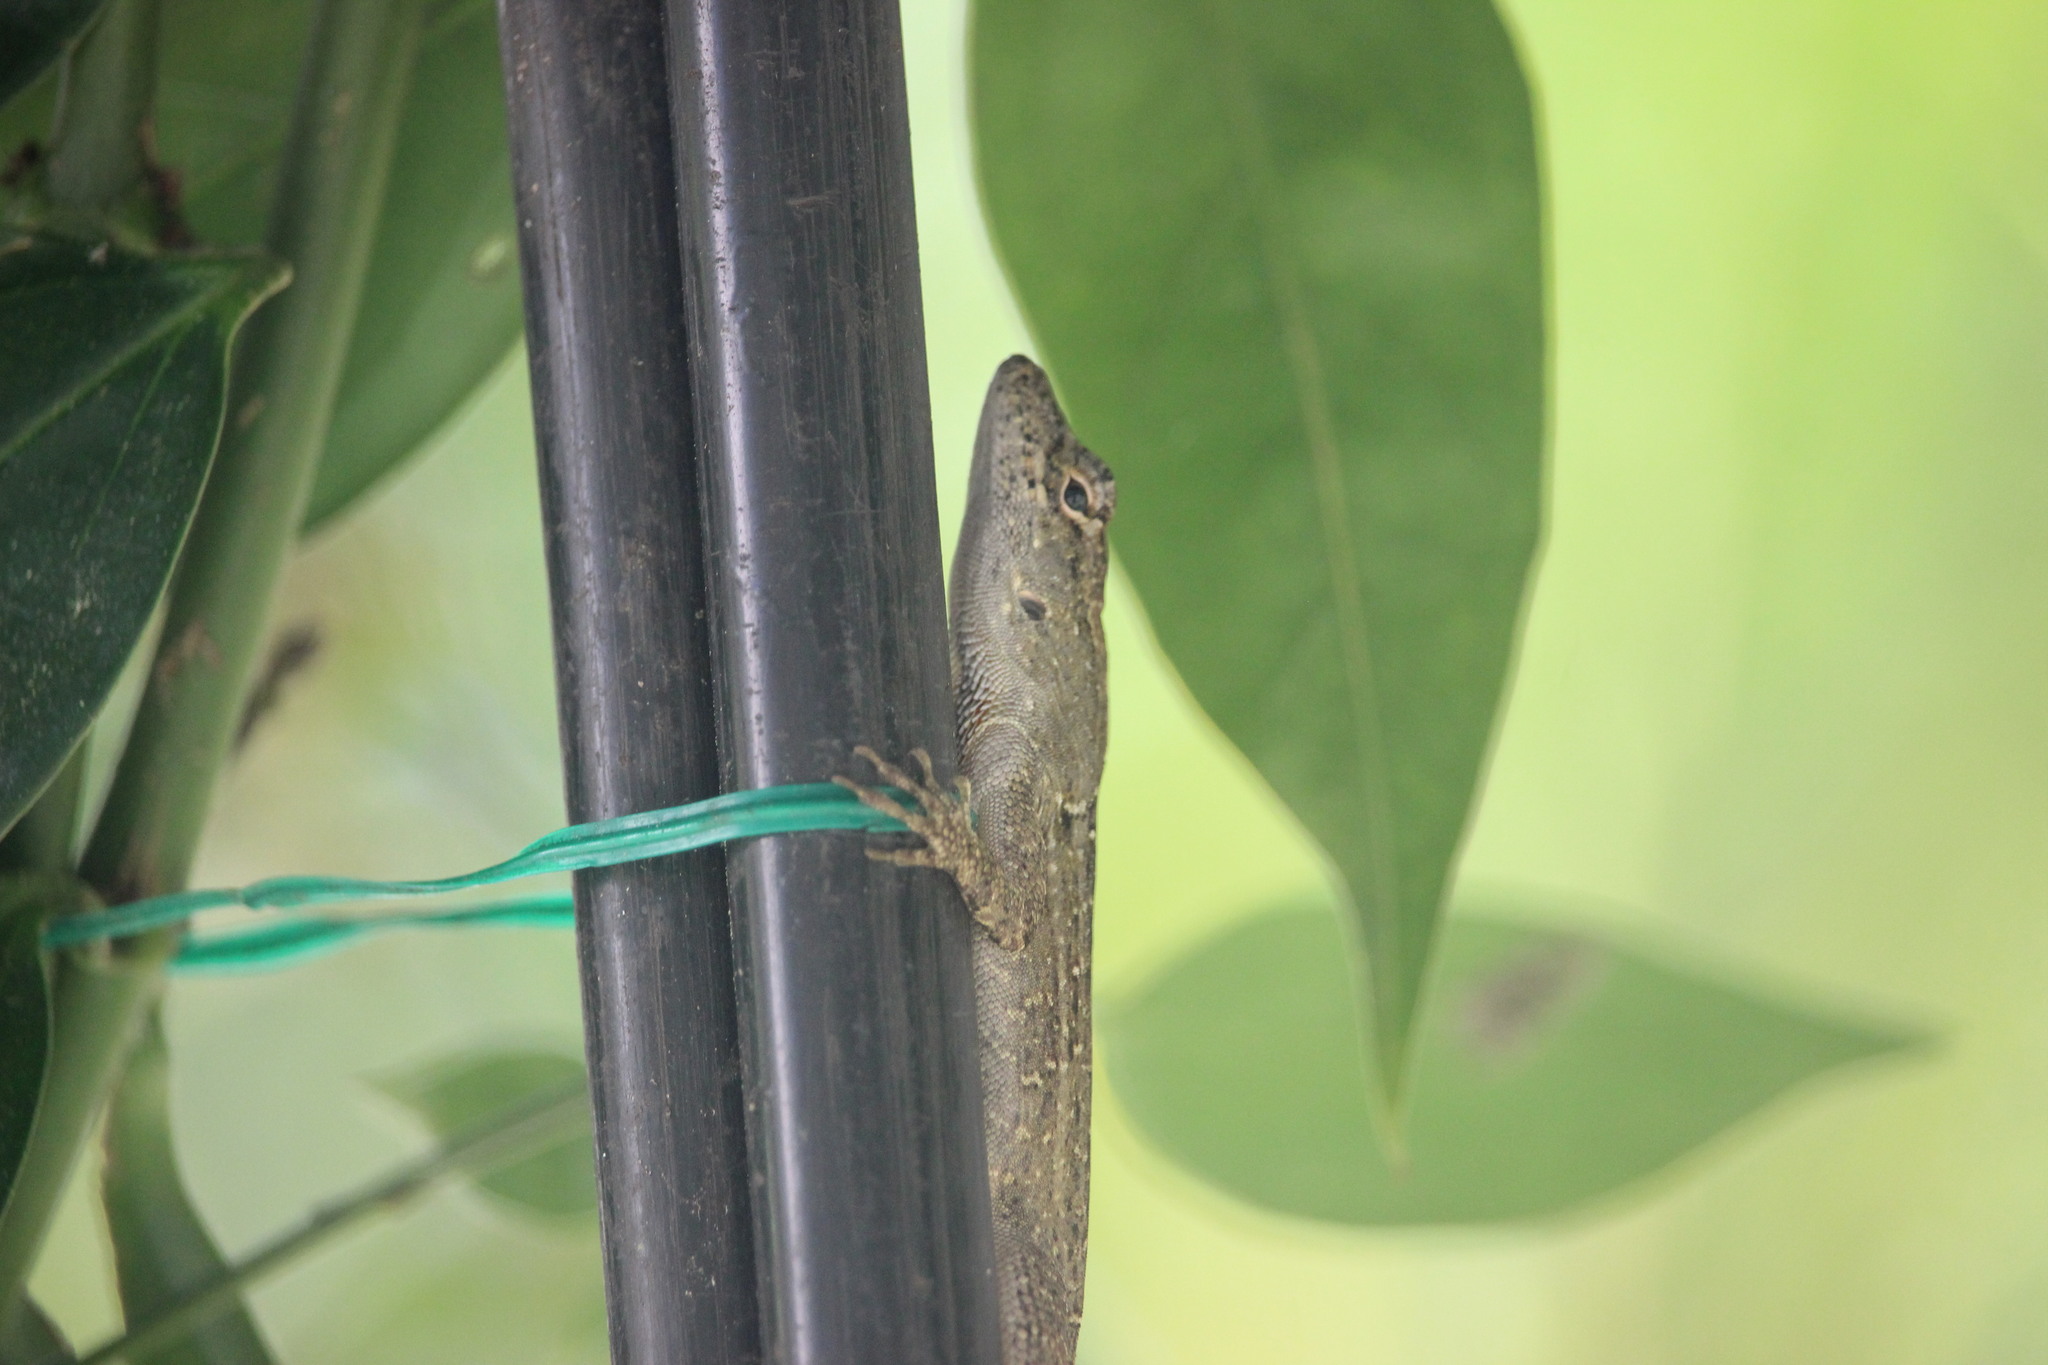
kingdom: Animalia
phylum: Chordata
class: Squamata
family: Dactyloidae
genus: Anolis
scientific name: Anolis sagrei
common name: Brown anole
